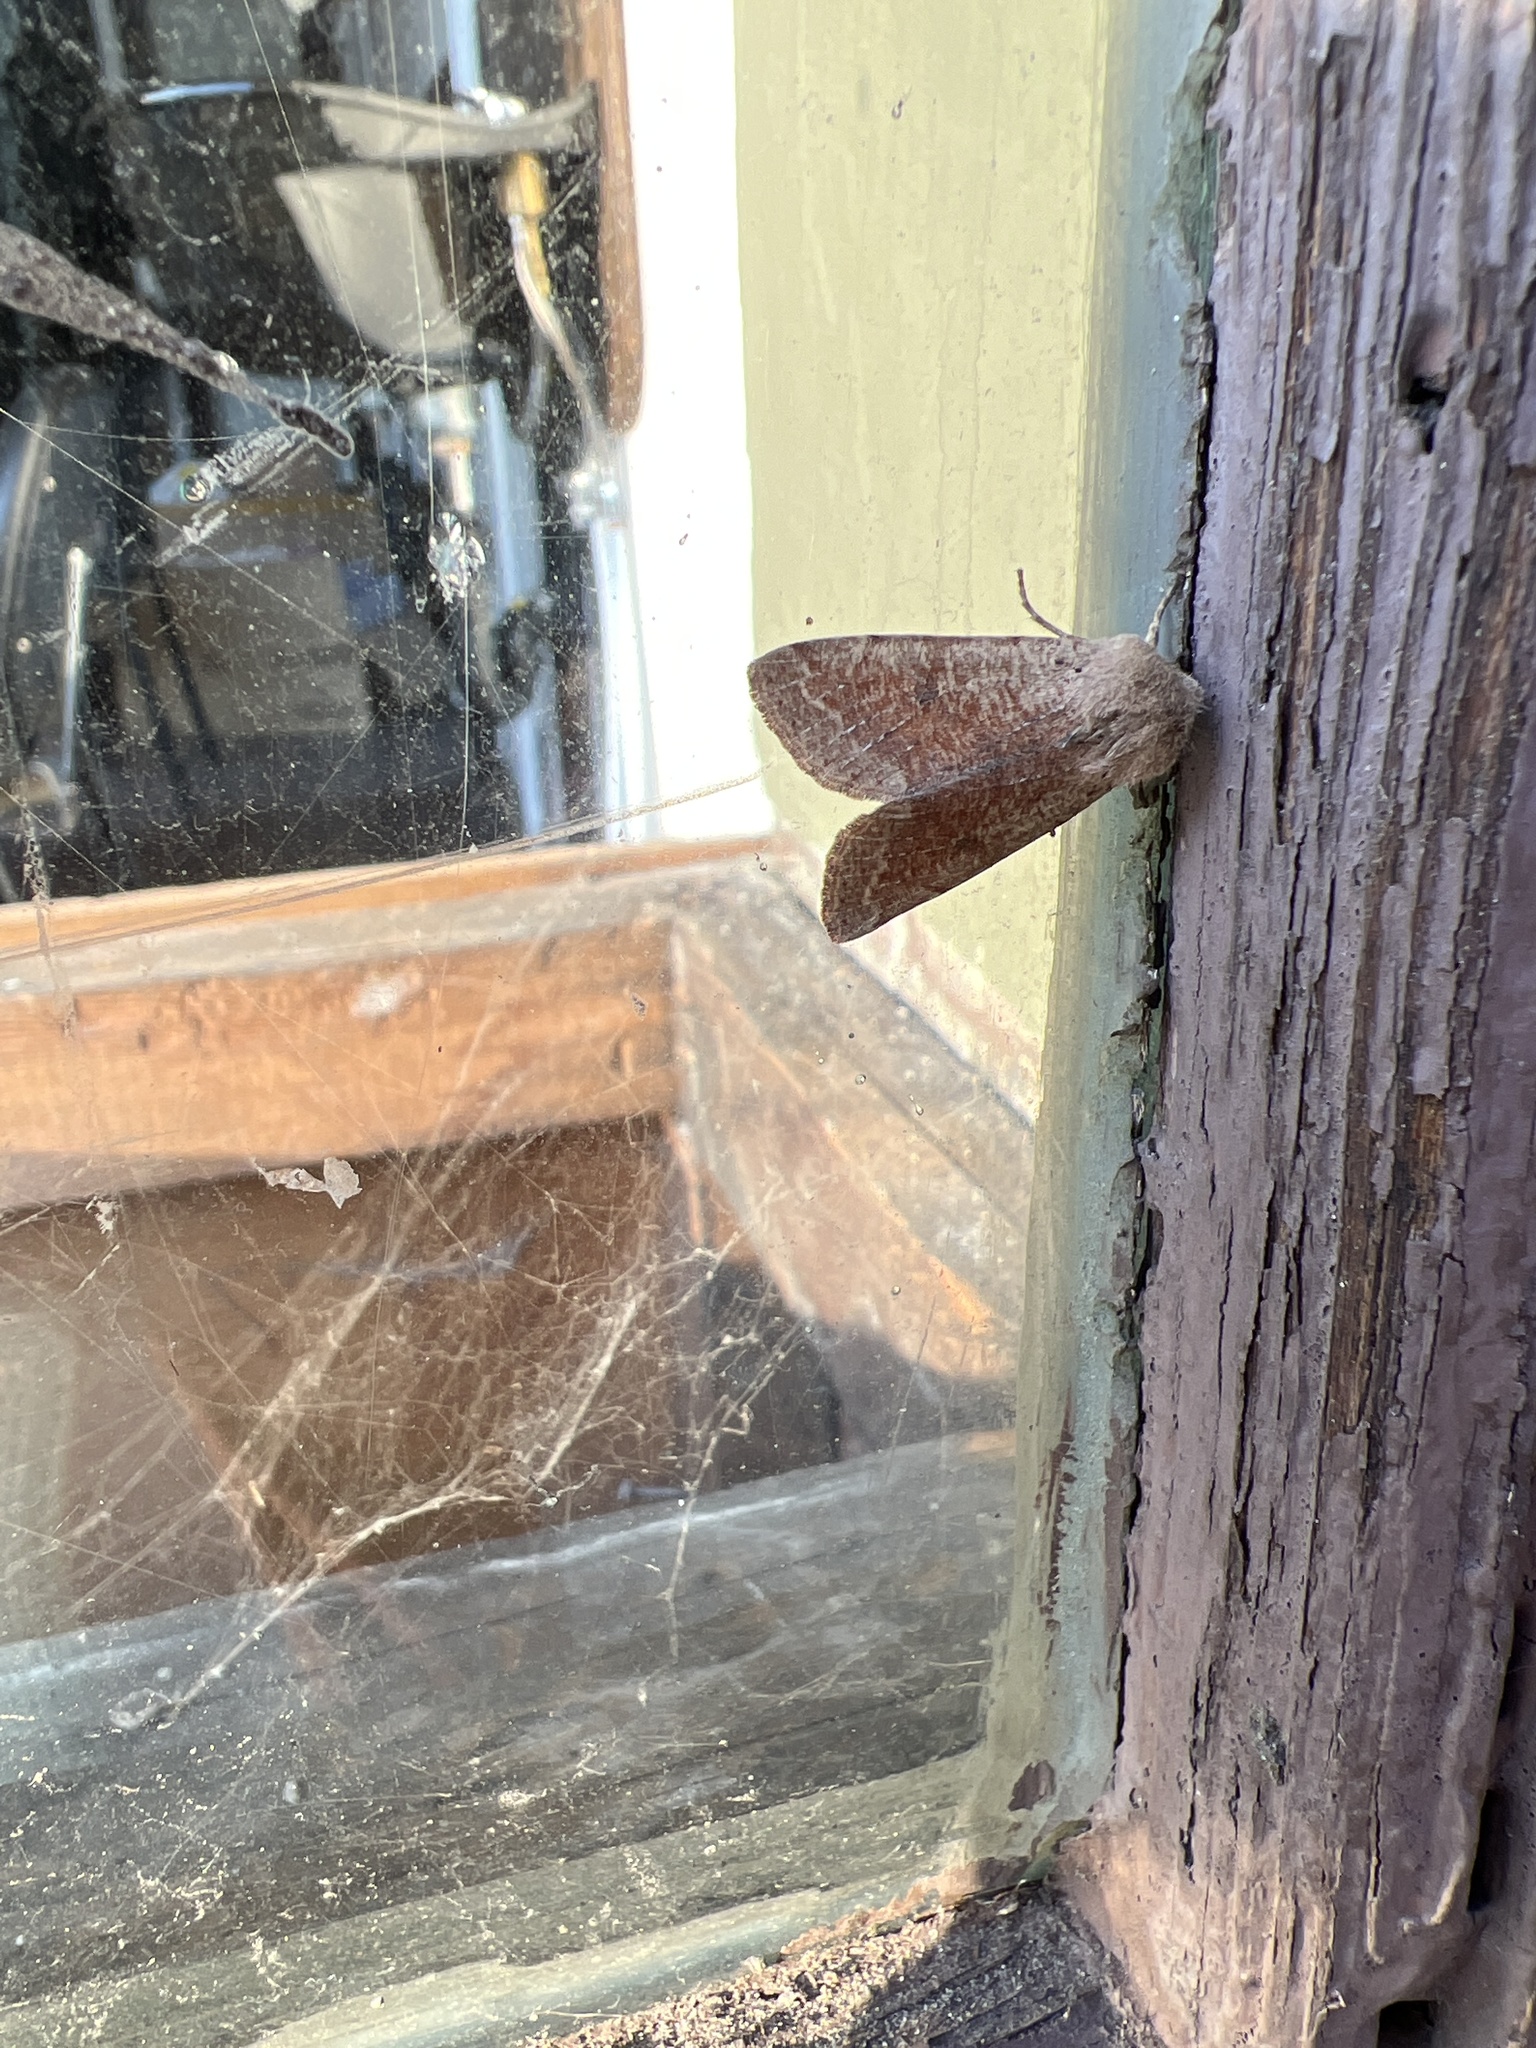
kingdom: Animalia
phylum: Arthropoda
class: Insecta
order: Lepidoptera
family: Noctuidae
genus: Orthosia
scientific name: Orthosia pacifica
